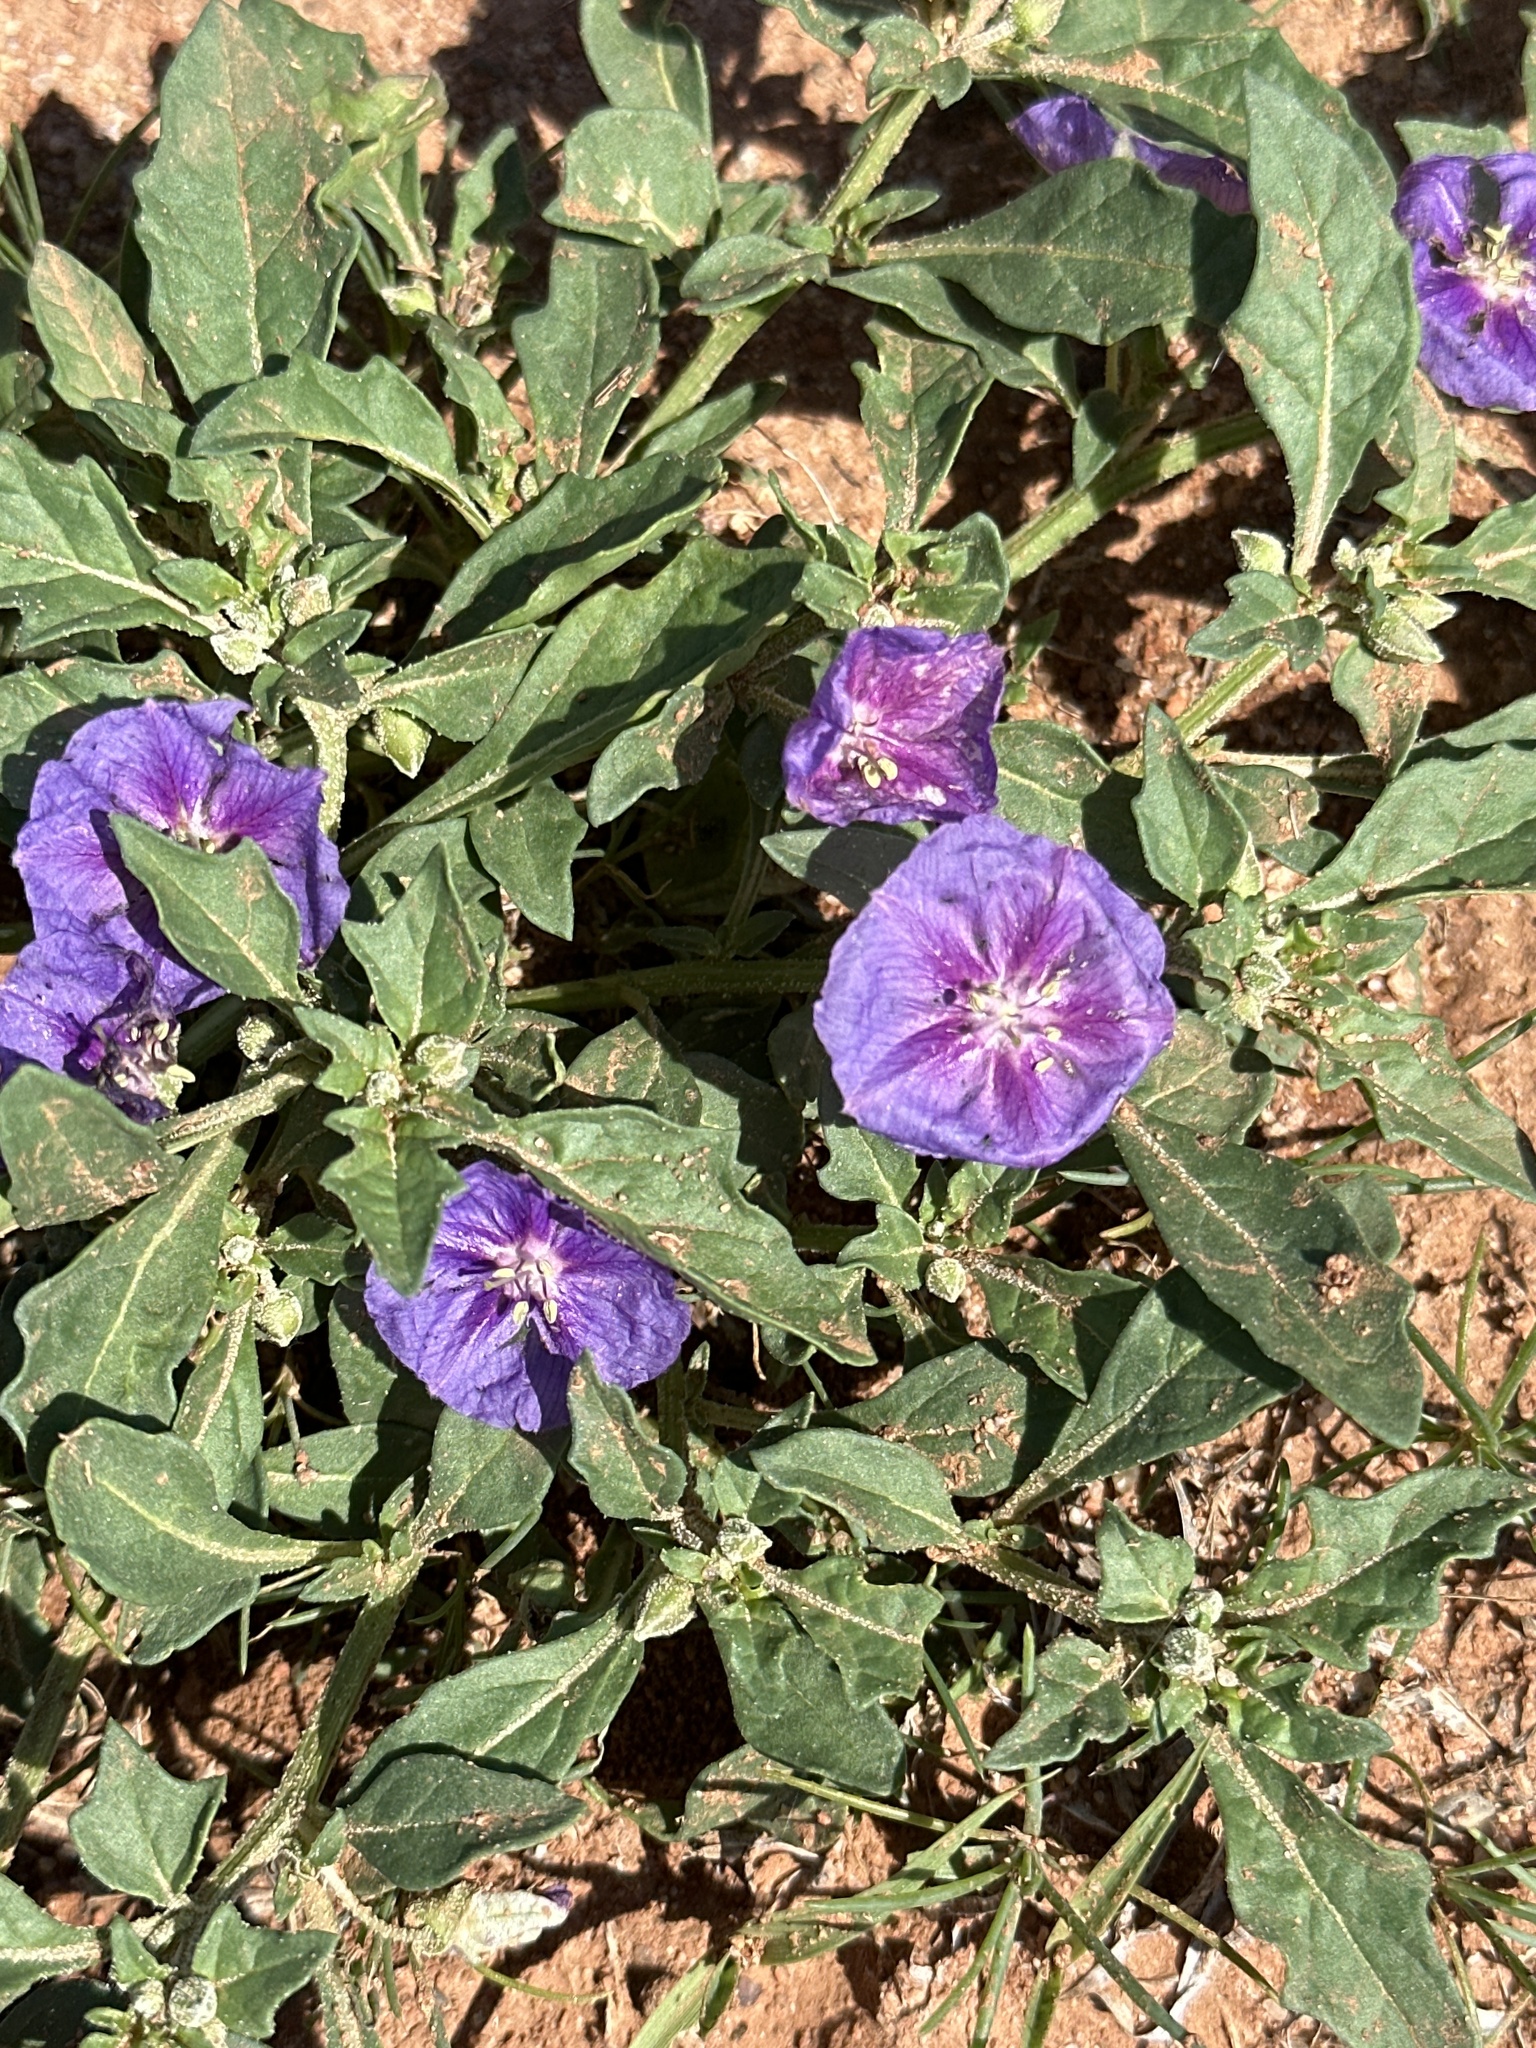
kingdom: Plantae
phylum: Tracheophyta
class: Magnoliopsida
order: Solanales
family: Solanaceae
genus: Quincula
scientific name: Quincula lobata
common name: Purple-ground-cherry
